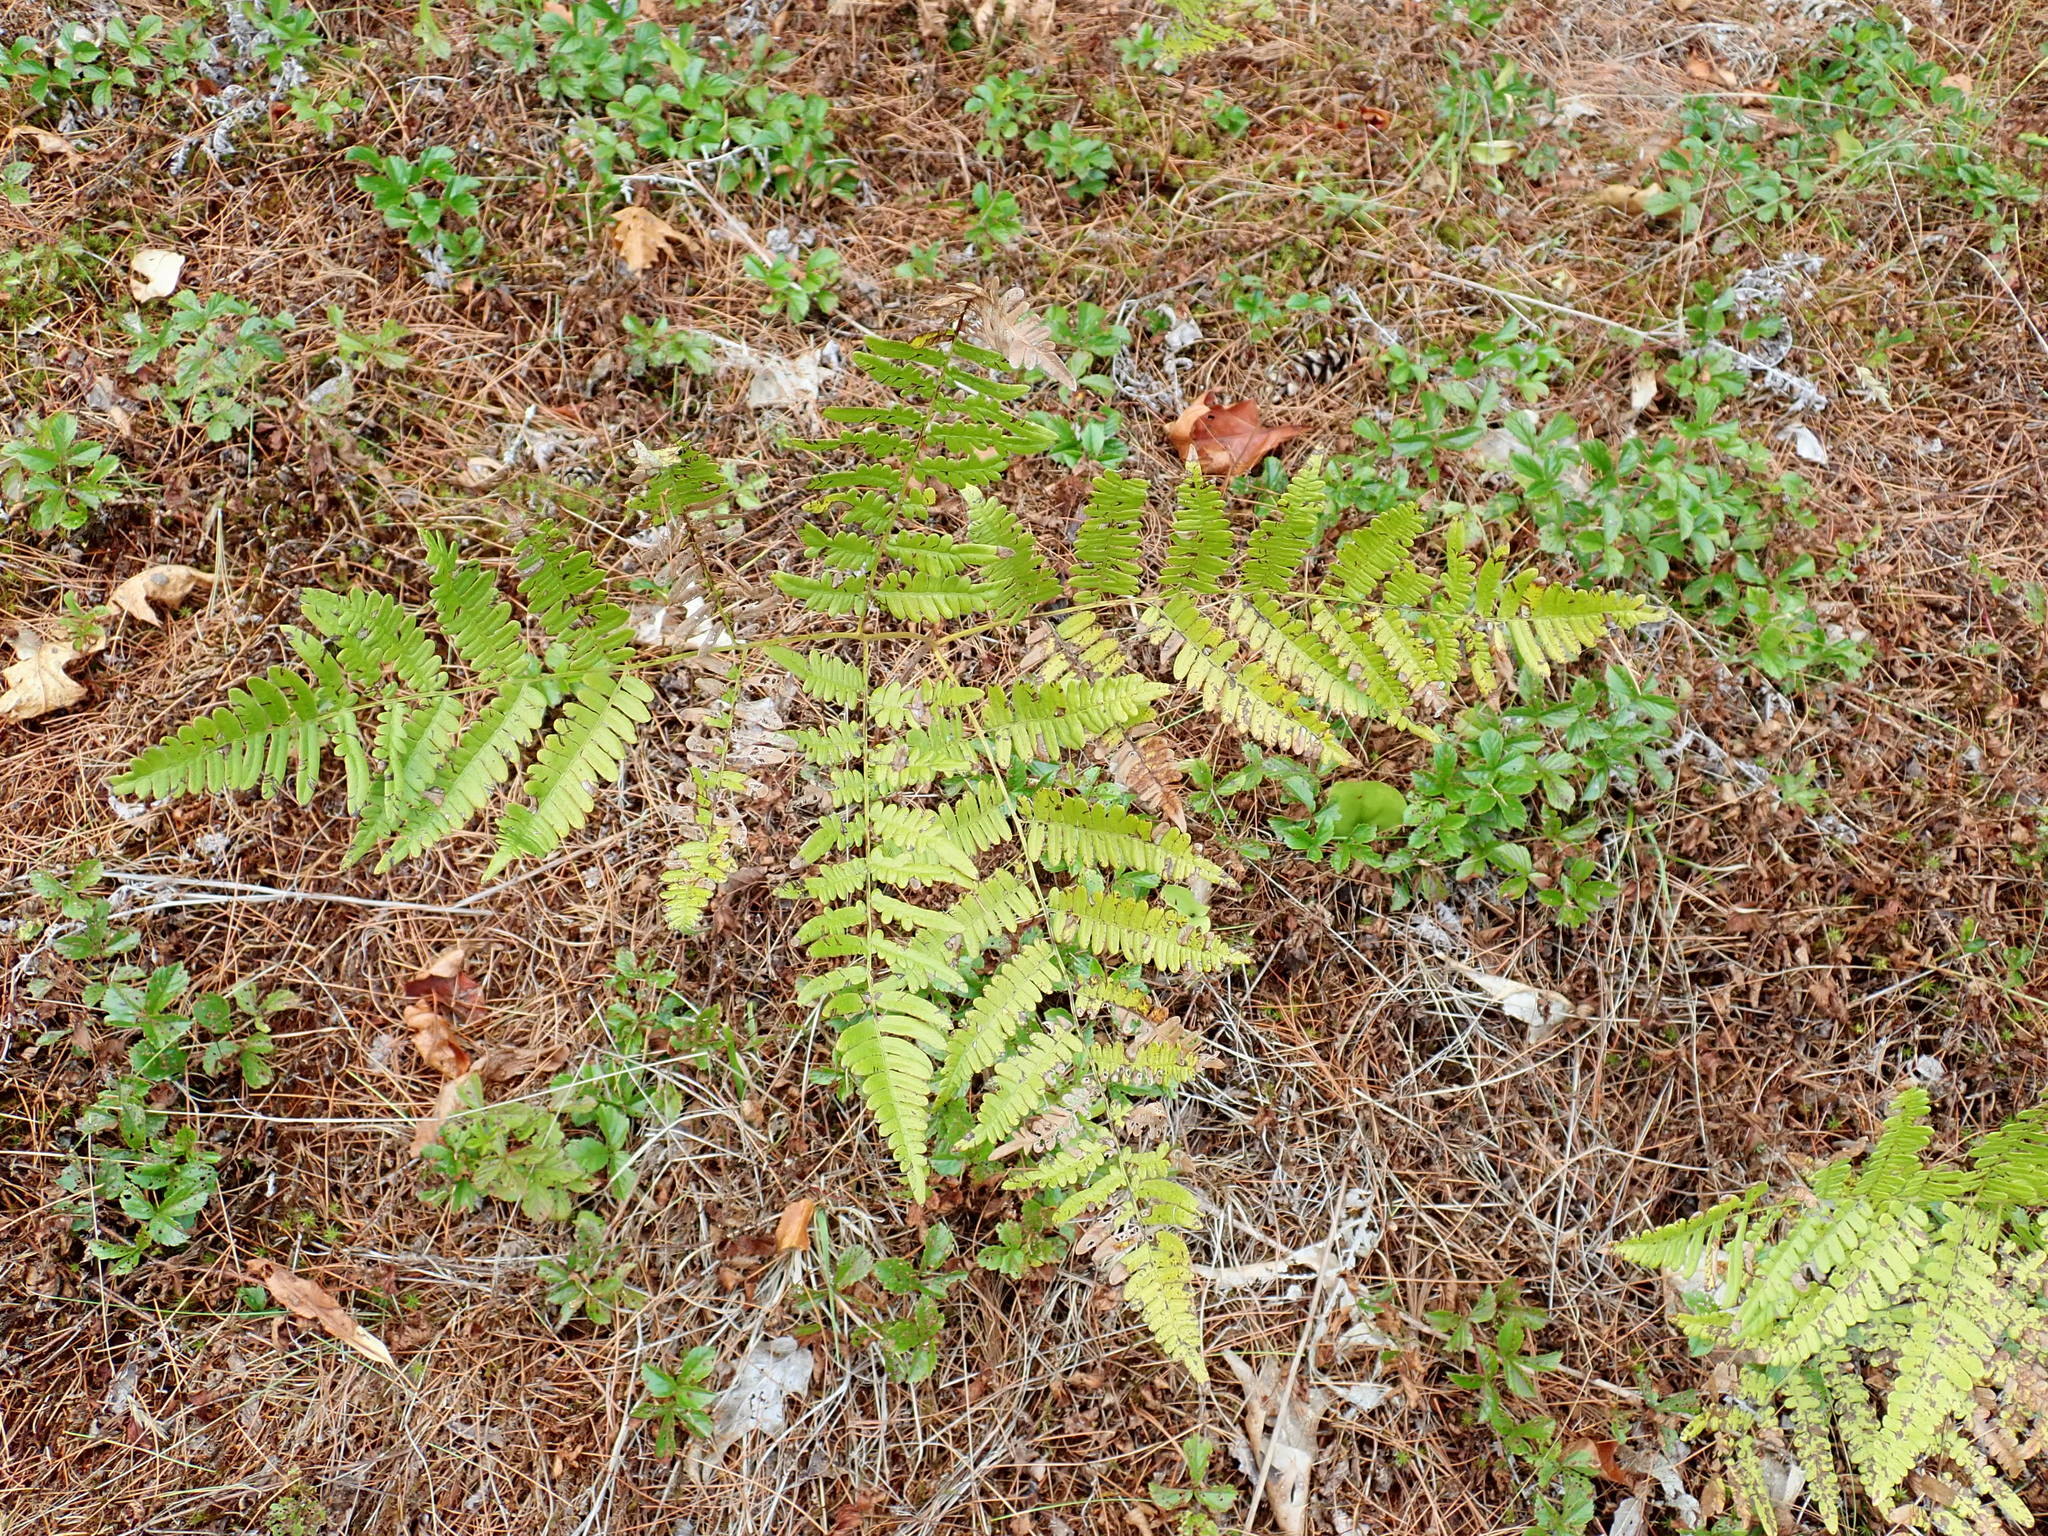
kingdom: Plantae
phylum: Tracheophyta
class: Polypodiopsida
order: Polypodiales
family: Dennstaedtiaceae
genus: Pteridium
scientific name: Pteridium aquilinum
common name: Bracken
